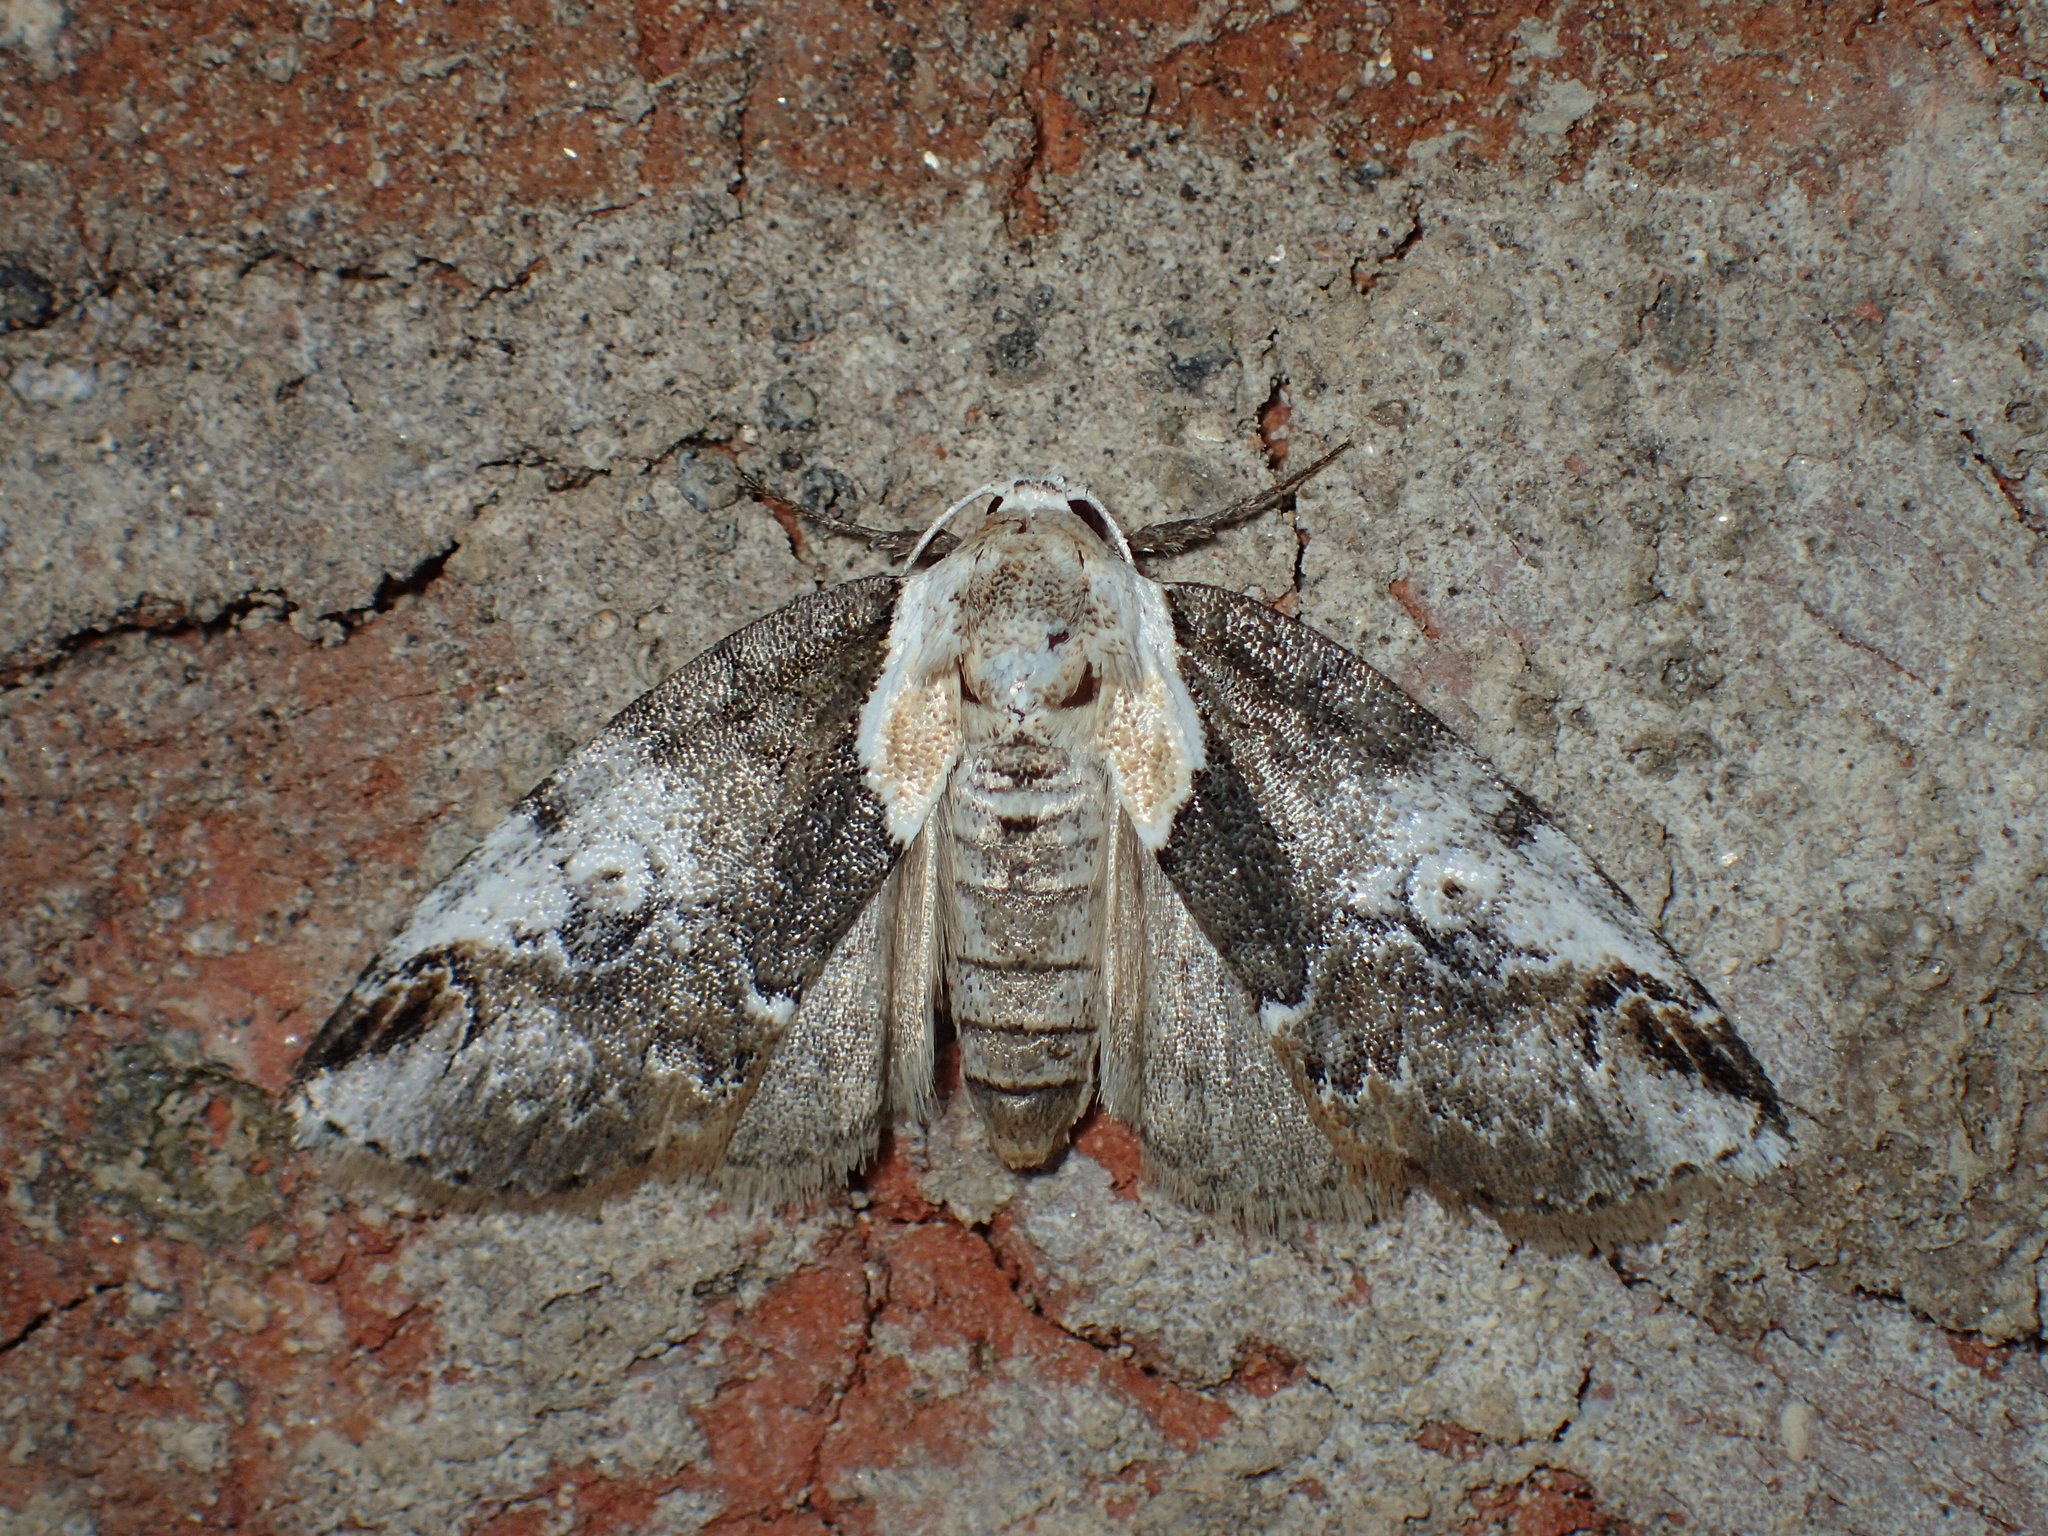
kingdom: Animalia
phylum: Arthropoda
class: Insecta
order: Lepidoptera
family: Nolidae
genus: Baileya
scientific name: Baileya ophthalmica
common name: Eyed baileya moth
